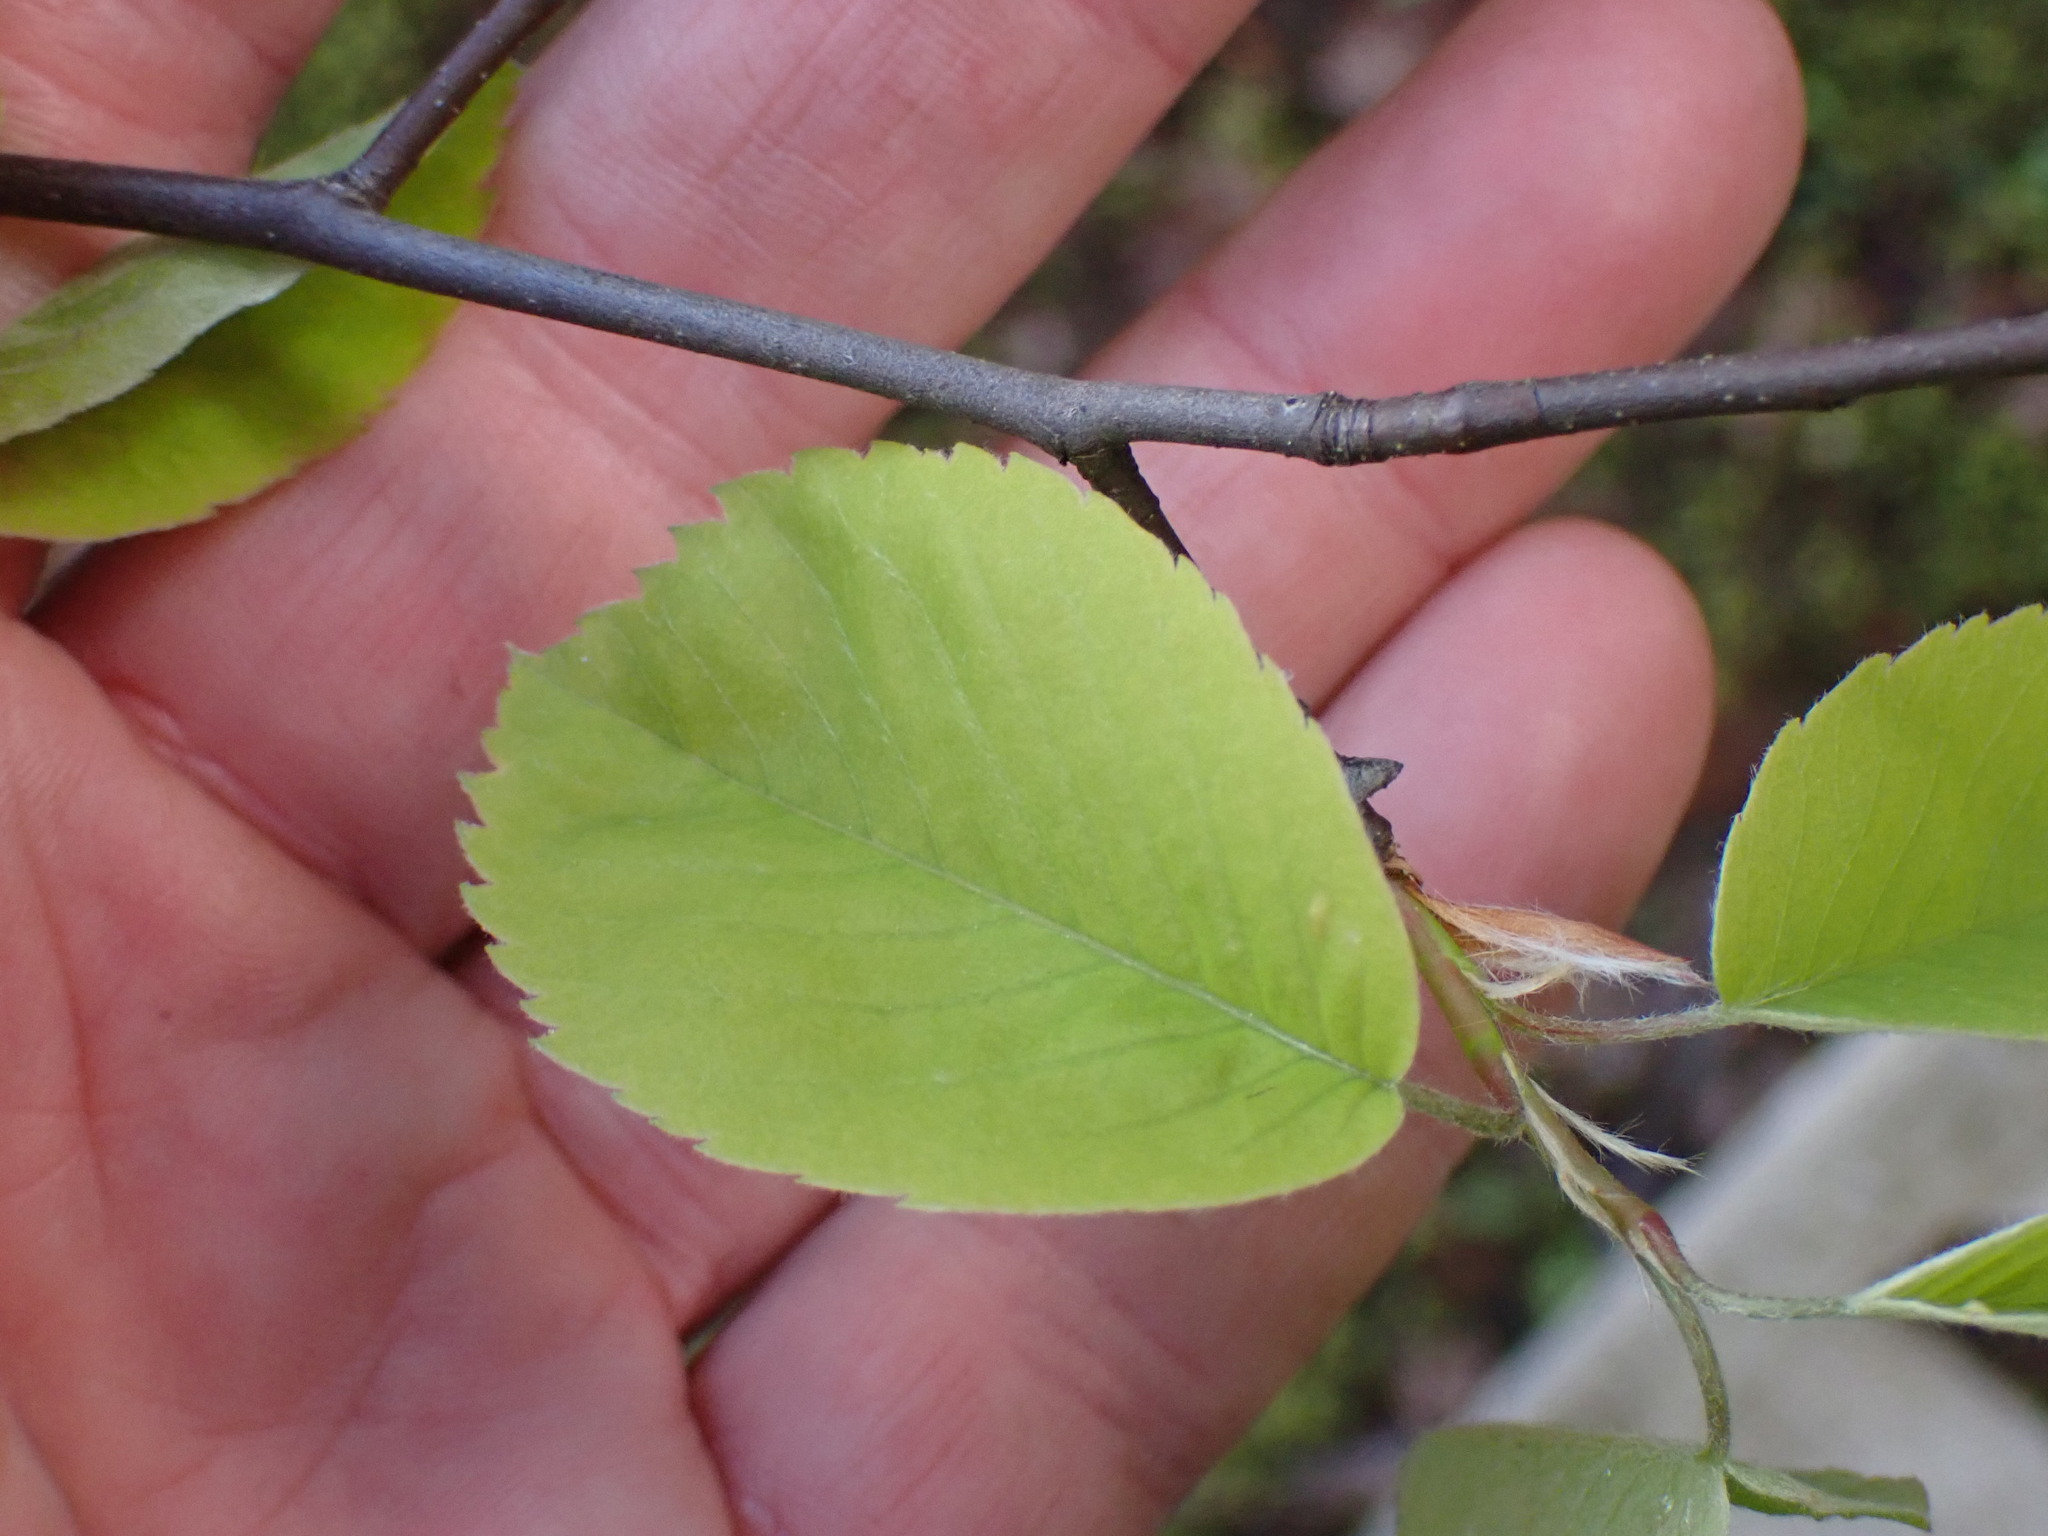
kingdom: Plantae
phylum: Tracheophyta
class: Magnoliopsida
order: Rosales
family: Rosaceae
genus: Amelanchier
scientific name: Amelanchier alnifolia
